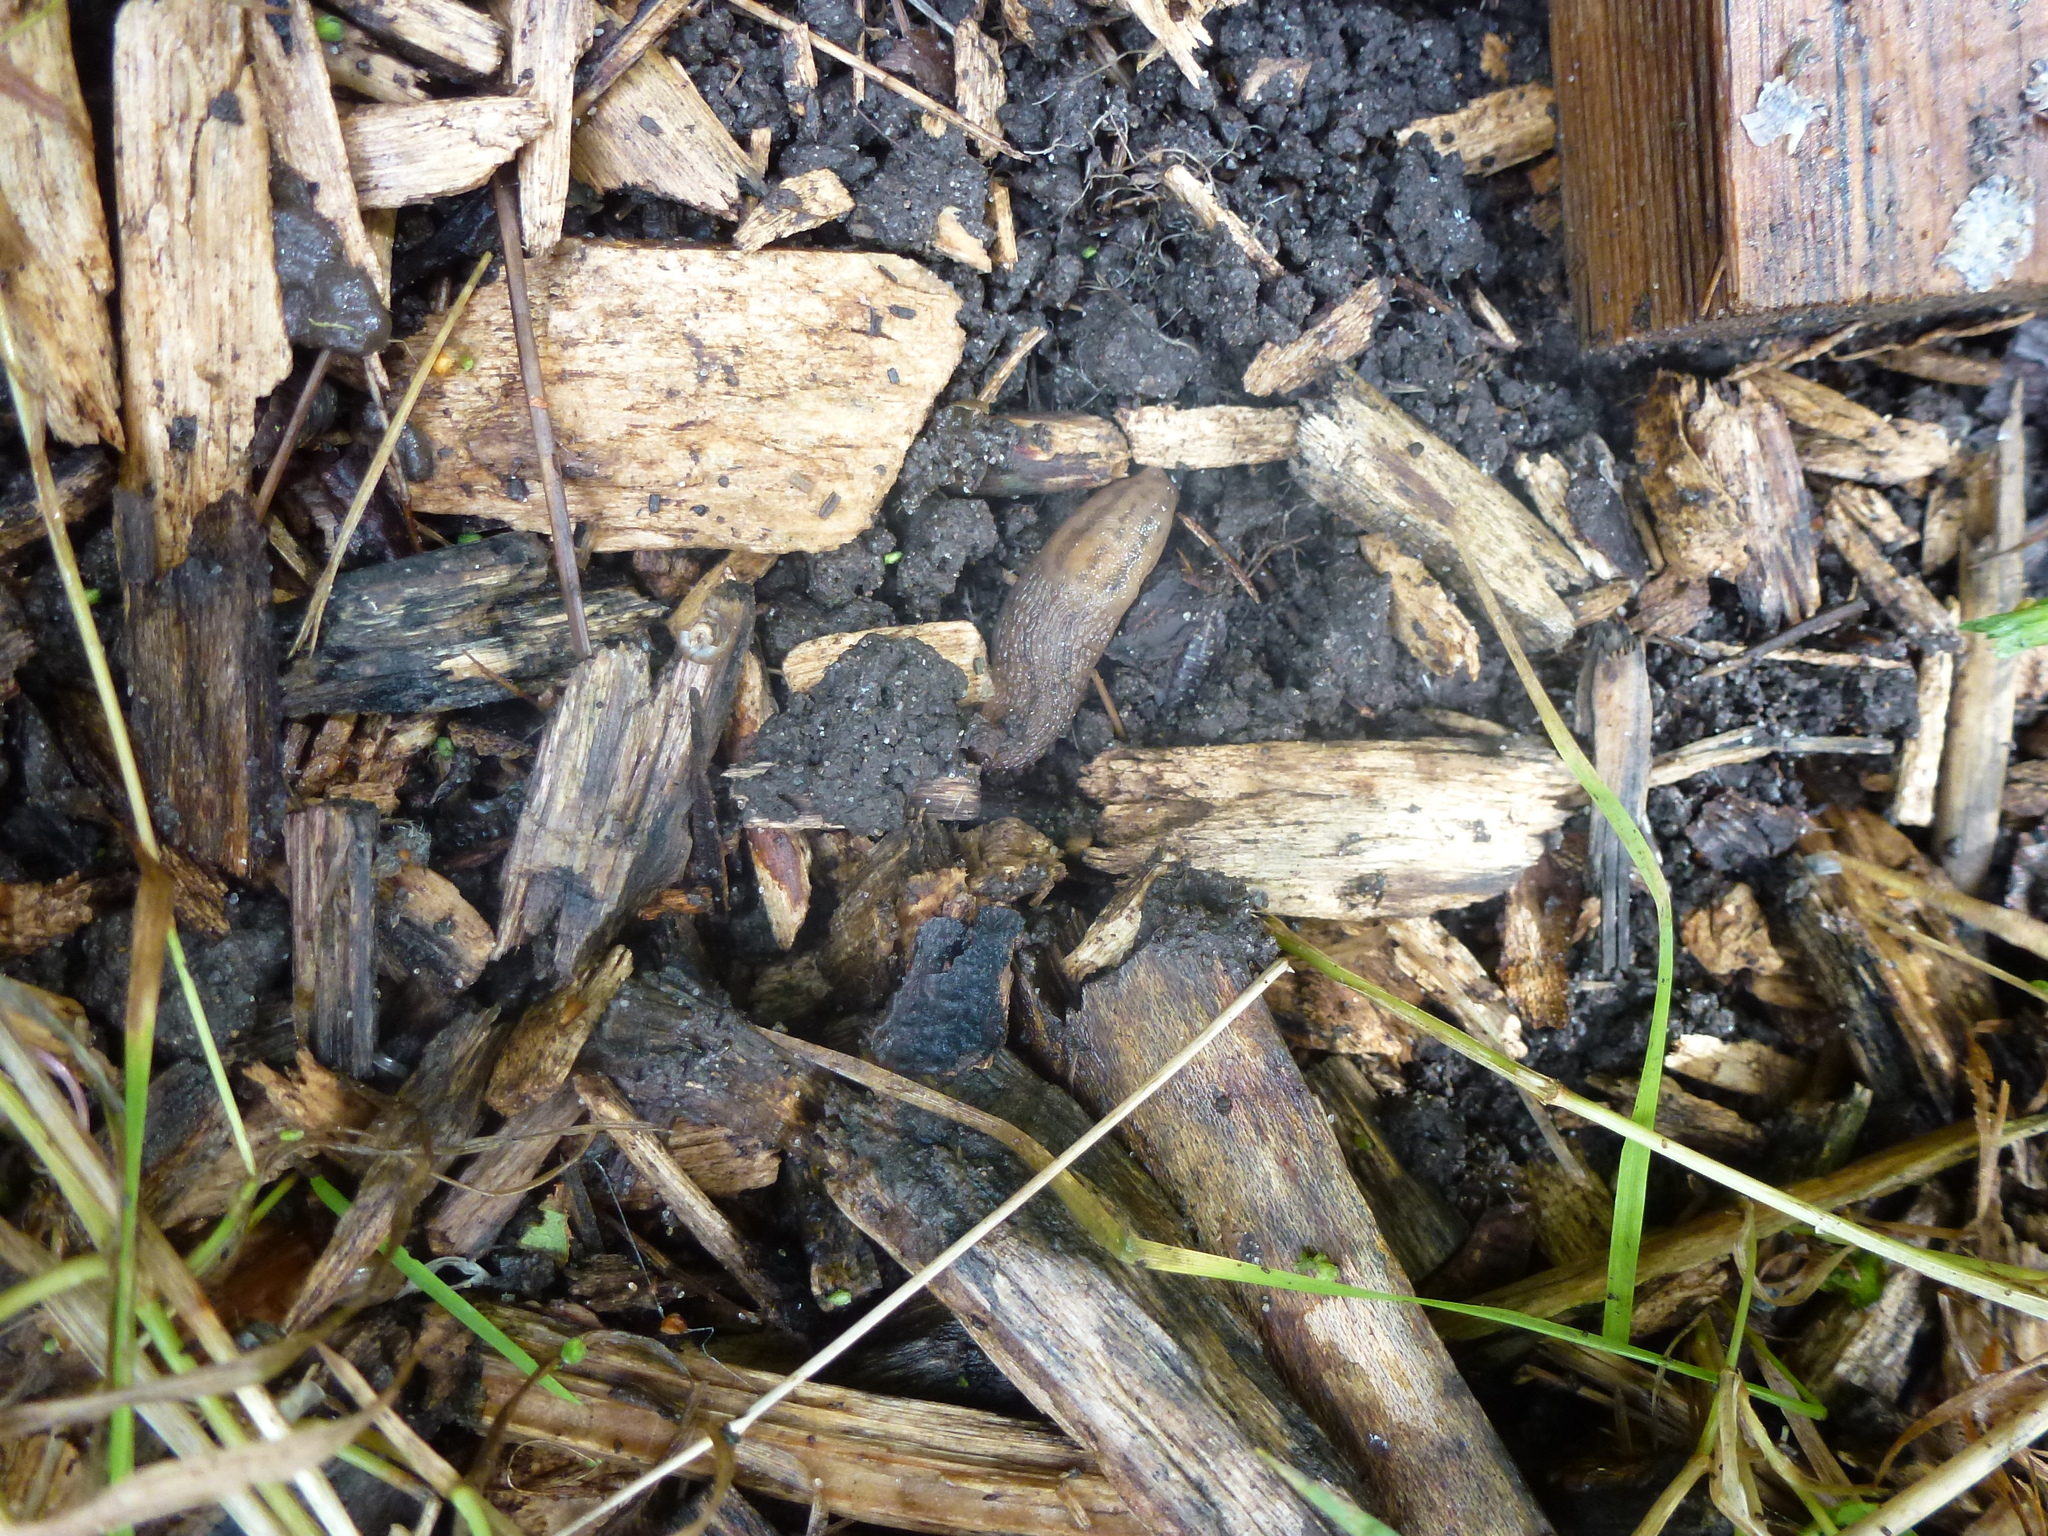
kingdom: Animalia
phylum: Mollusca
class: Gastropoda
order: Stylommatophora
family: Limacidae
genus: Ambigolimax
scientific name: Ambigolimax valentianus
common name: Greenhouse slug
